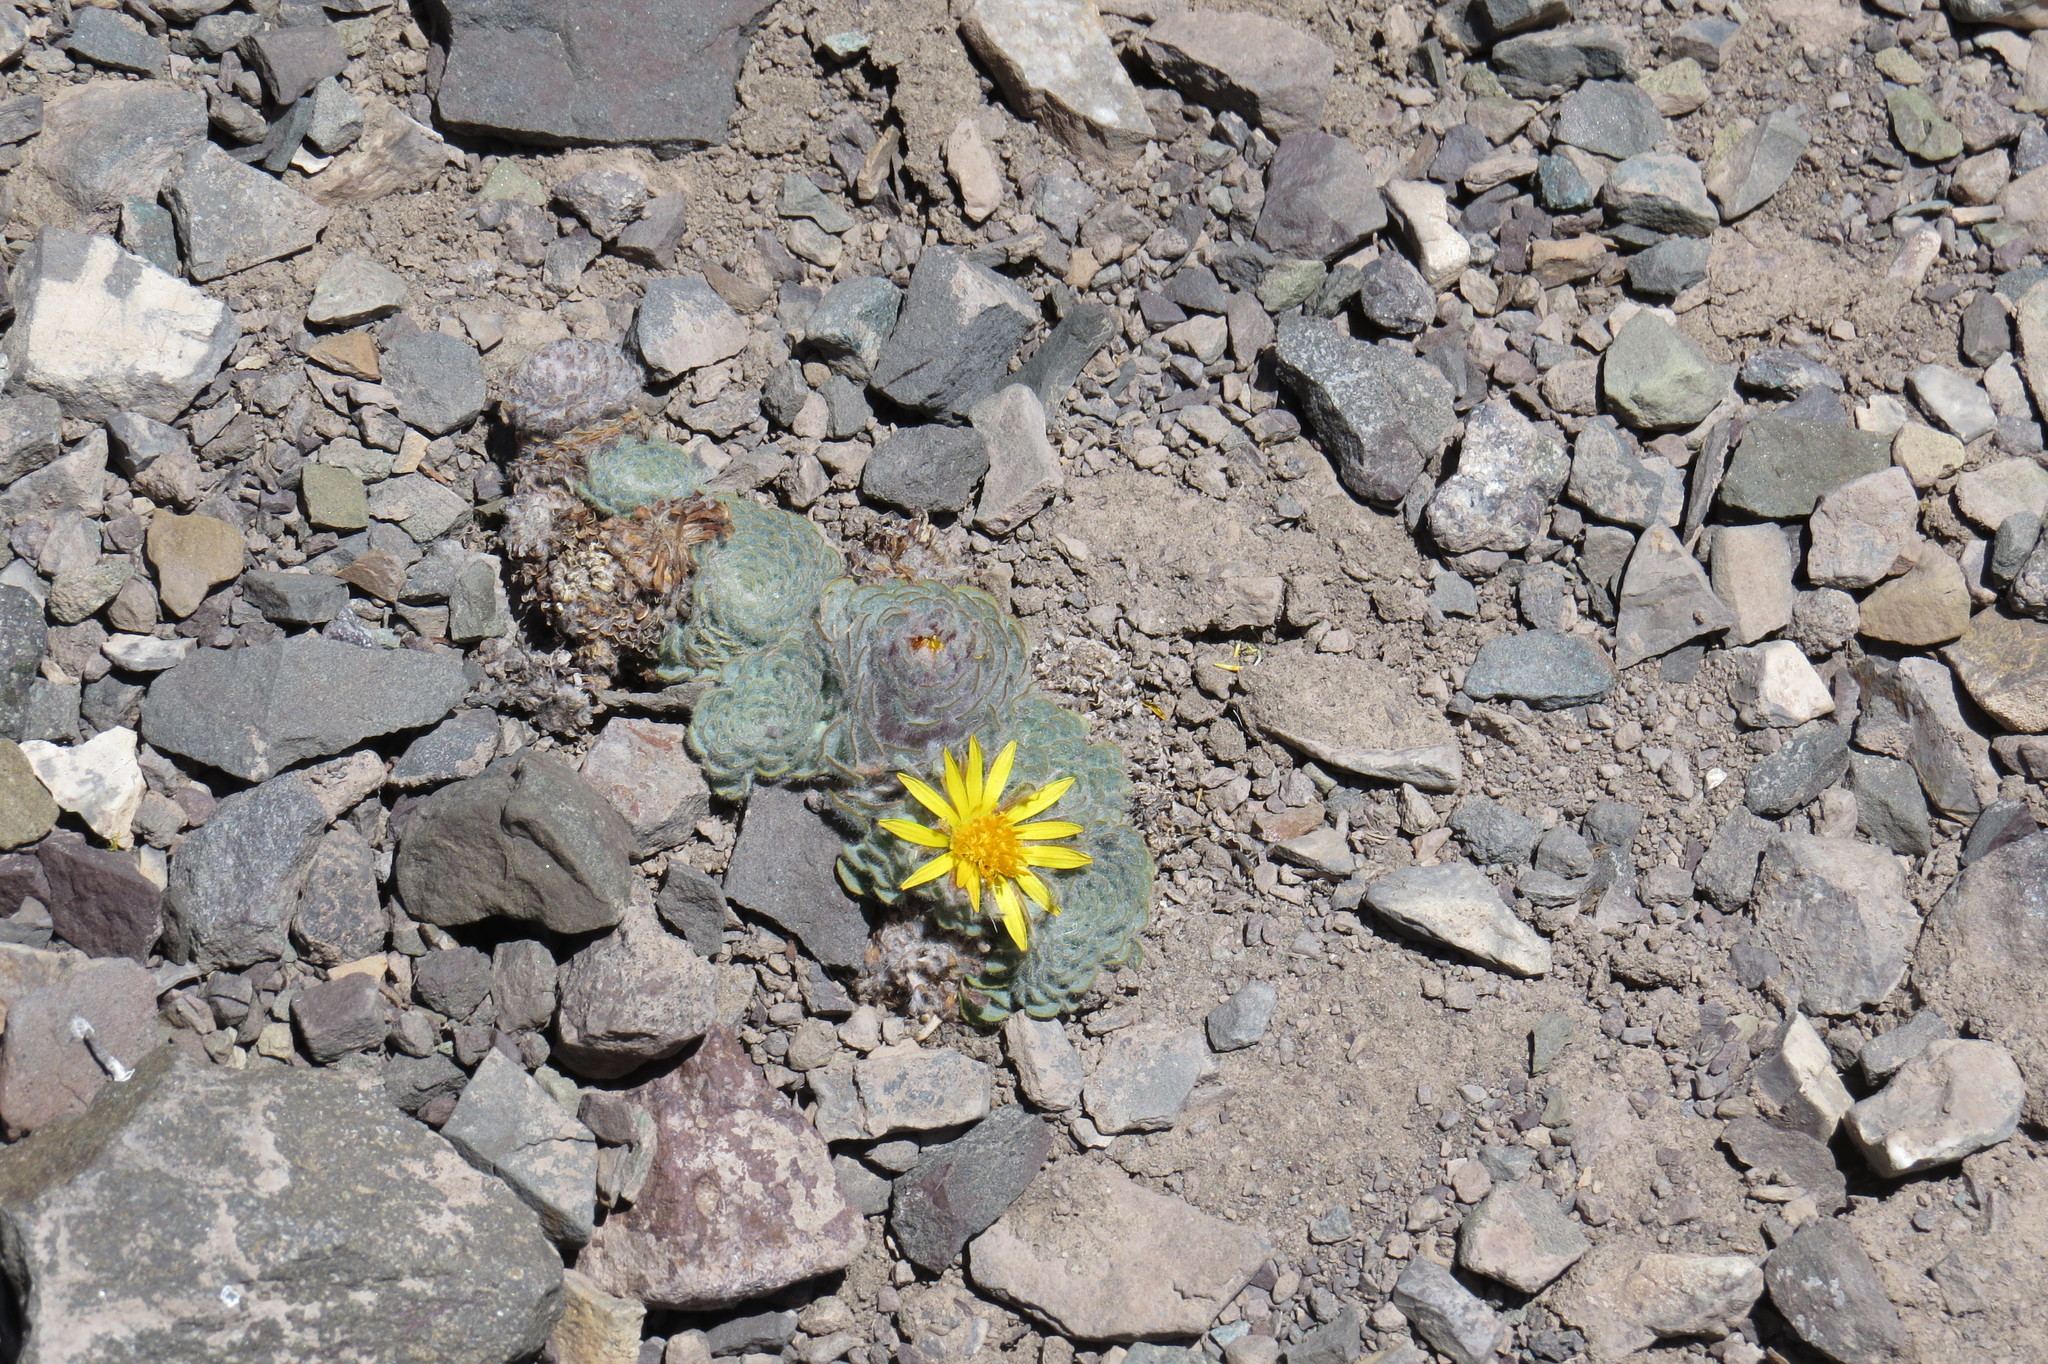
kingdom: Plantae
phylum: Tracheophyta
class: Magnoliopsida
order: Asterales
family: Asteraceae
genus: Chaetanthera
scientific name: Chaetanthera spathulifolia
